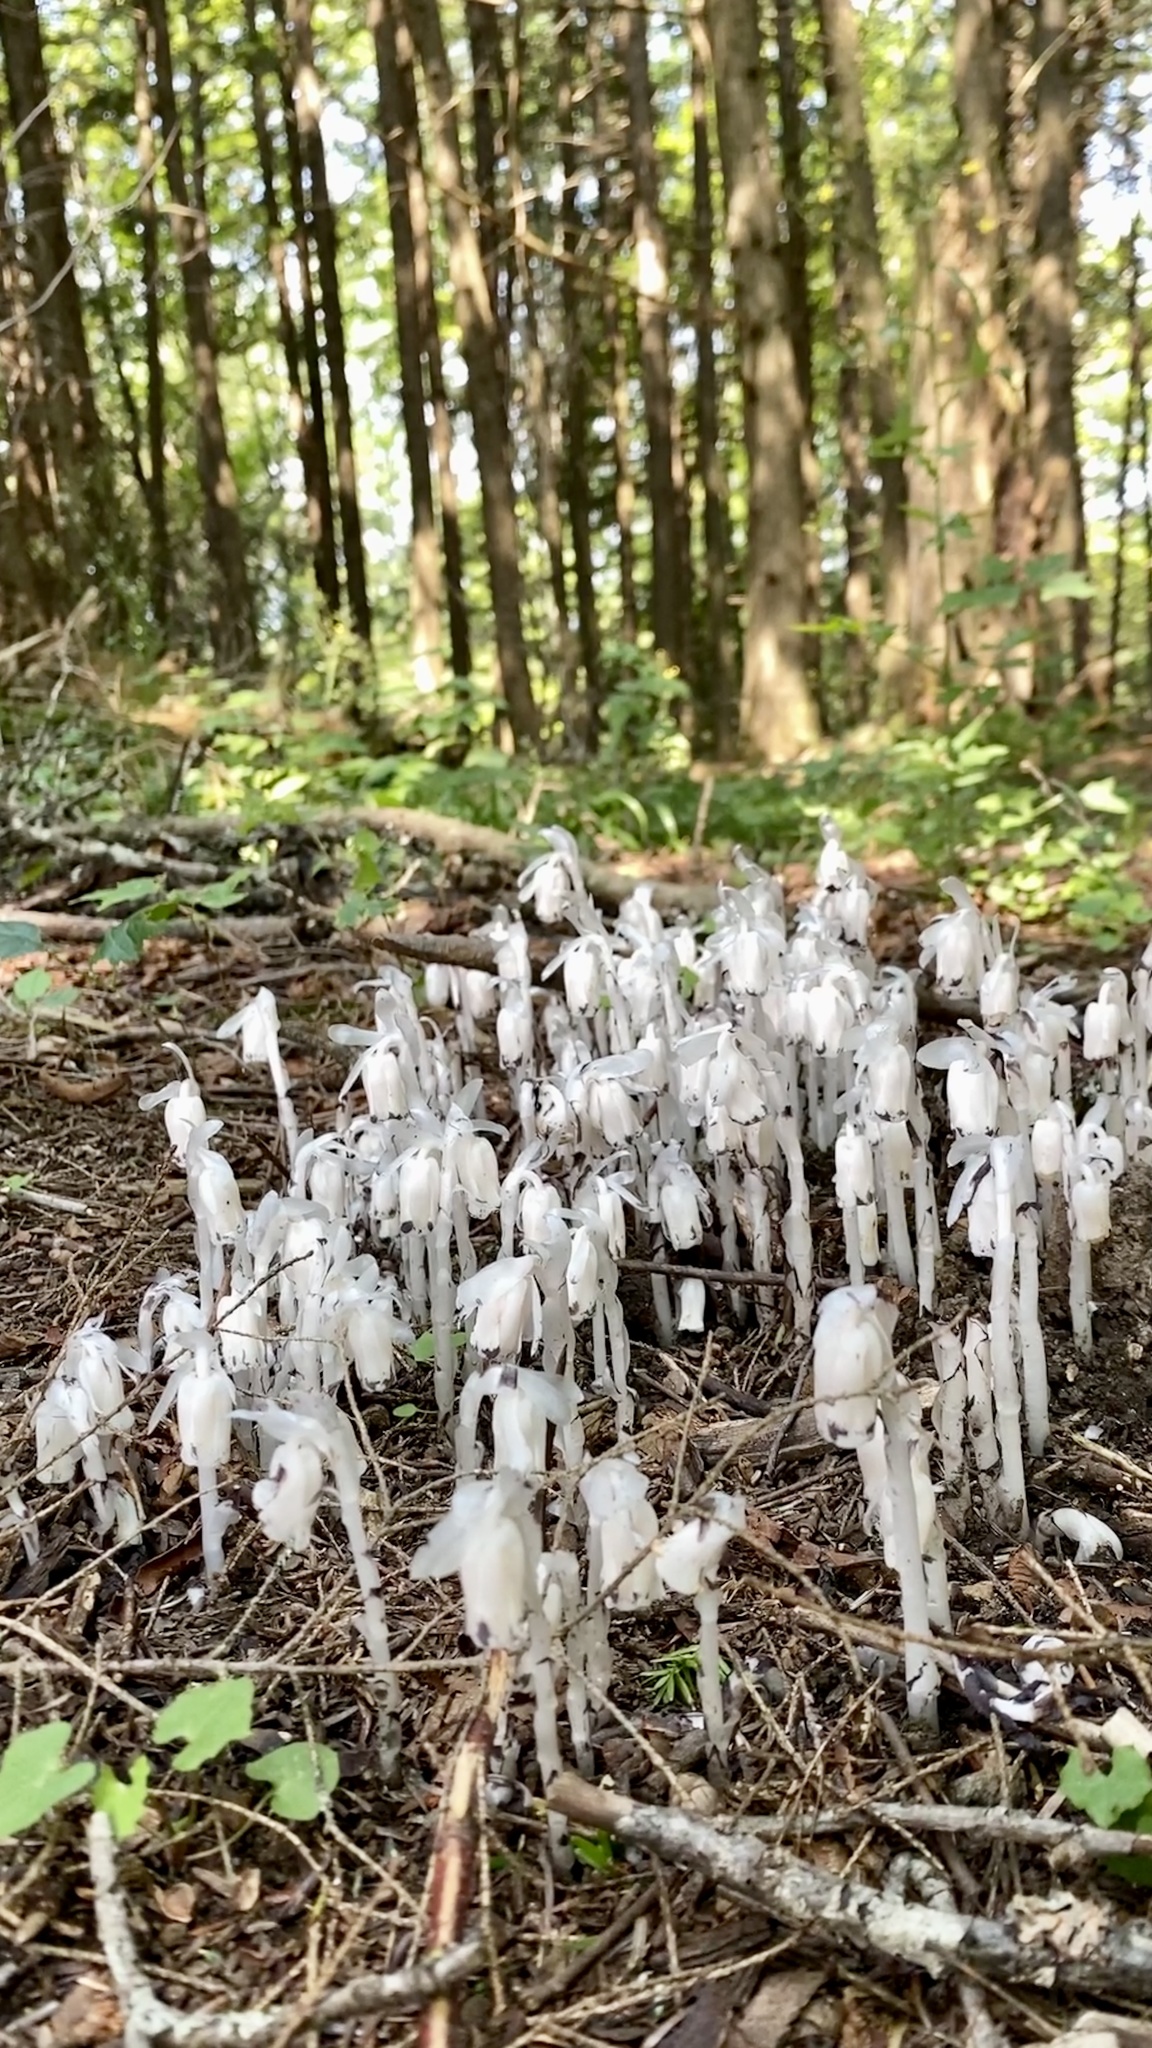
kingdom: Plantae
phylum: Tracheophyta
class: Magnoliopsida
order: Ericales
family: Ericaceae
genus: Monotropa
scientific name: Monotropa uniflora
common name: Convulsion root
